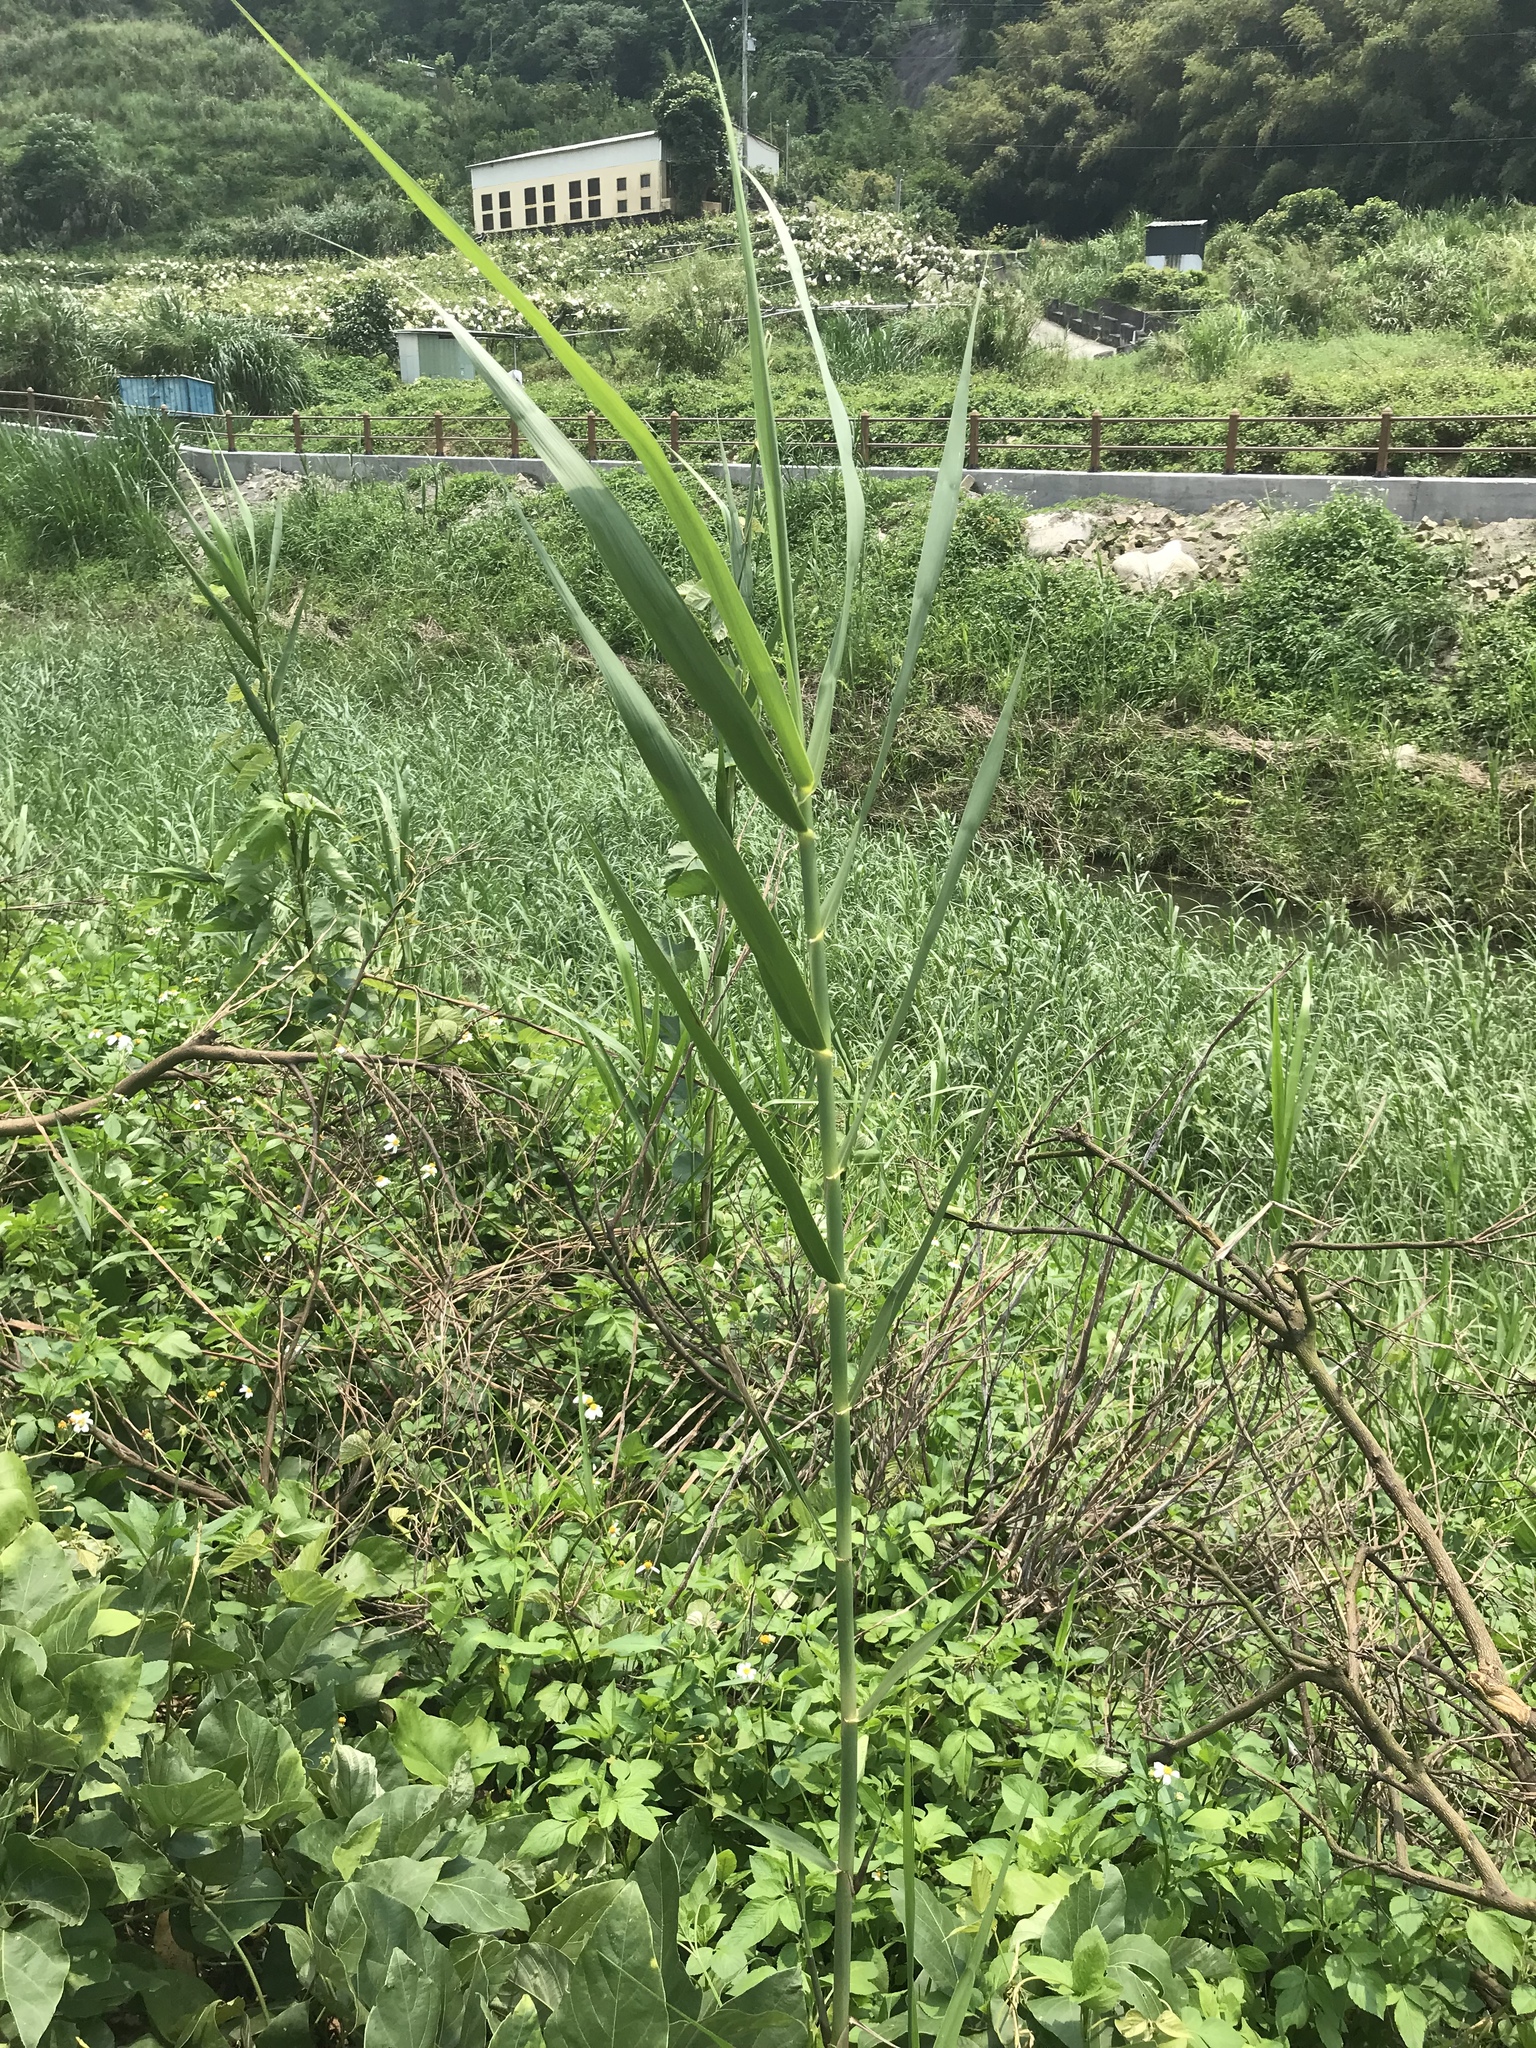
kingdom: Plantae
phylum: Tracheophyta
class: Liliopsida
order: Poales
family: Poaceae
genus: Phragmites
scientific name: Phragmites karka
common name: Tropical reed
